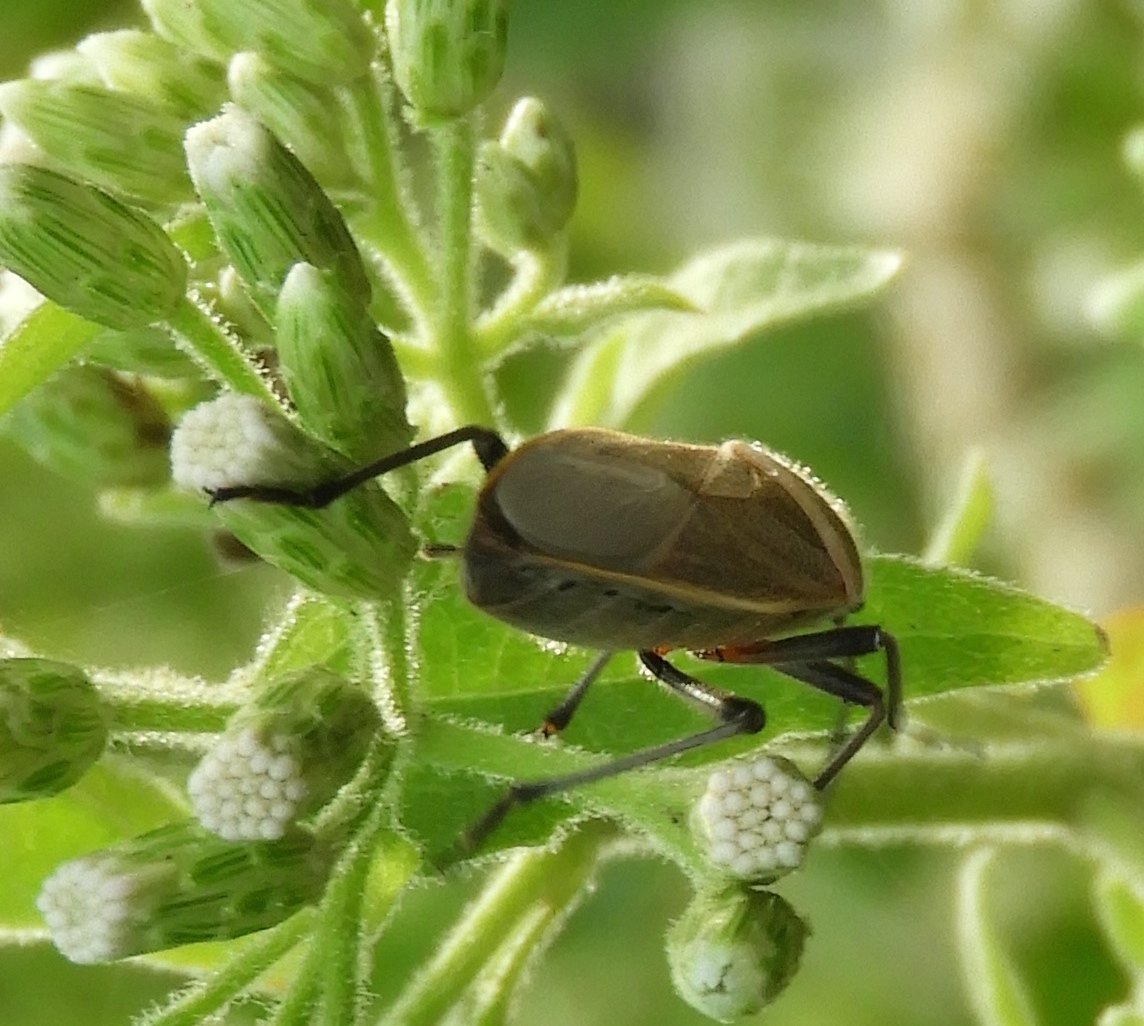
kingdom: Animalia
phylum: Arthropoda
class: Insecta
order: Hemiptera
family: Largidae
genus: Largus
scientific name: Largus
